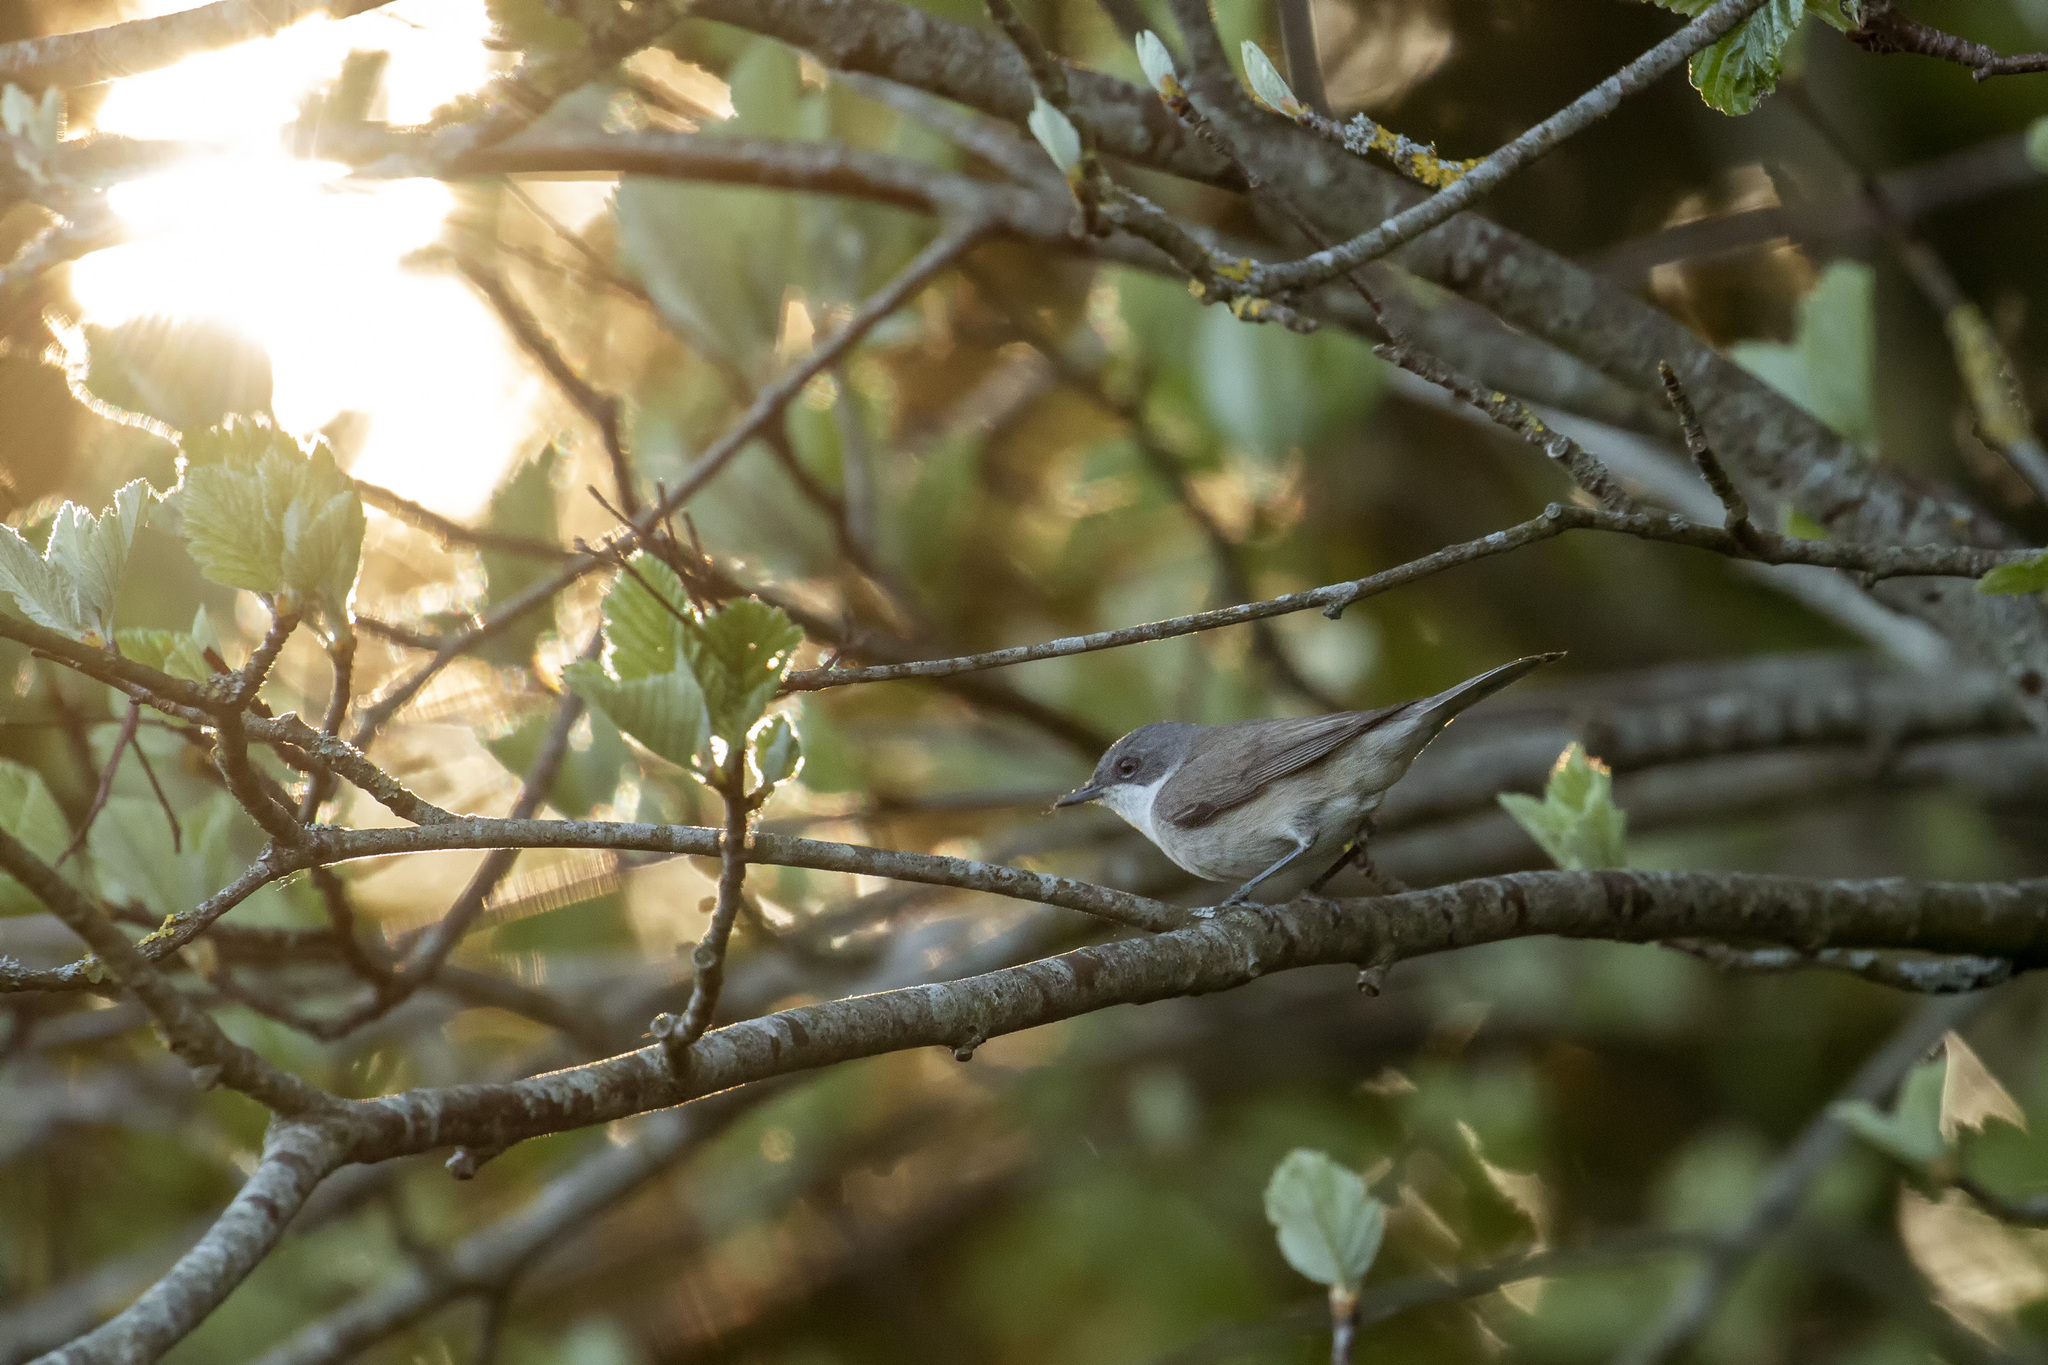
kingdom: Animalia
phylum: Chordata
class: Aves
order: Passeriformes
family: Sylviidae
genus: Sylvia
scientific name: Sylvia curruca
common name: Lesser whitethroat
